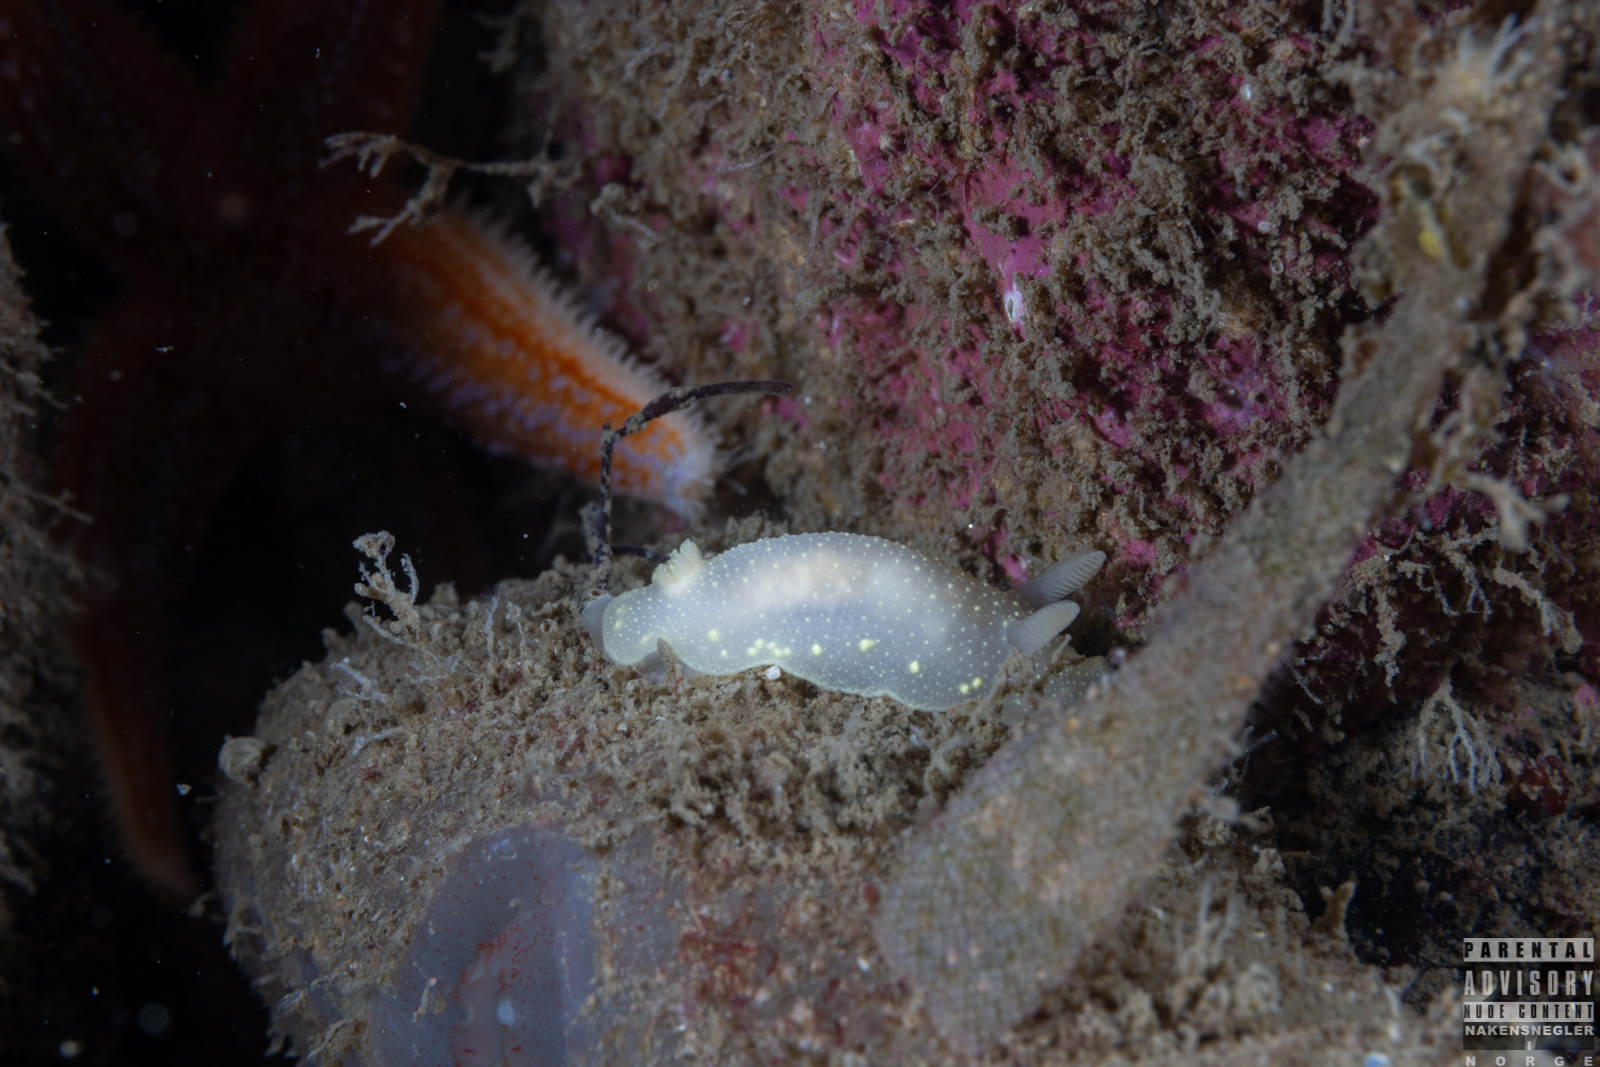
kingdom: Animalia
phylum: Mollusca
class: Gastropoda
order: Nudibranchia
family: Cadlinidae
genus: Cadlina
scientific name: Cadlina laevis
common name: White atlantic cadlina
